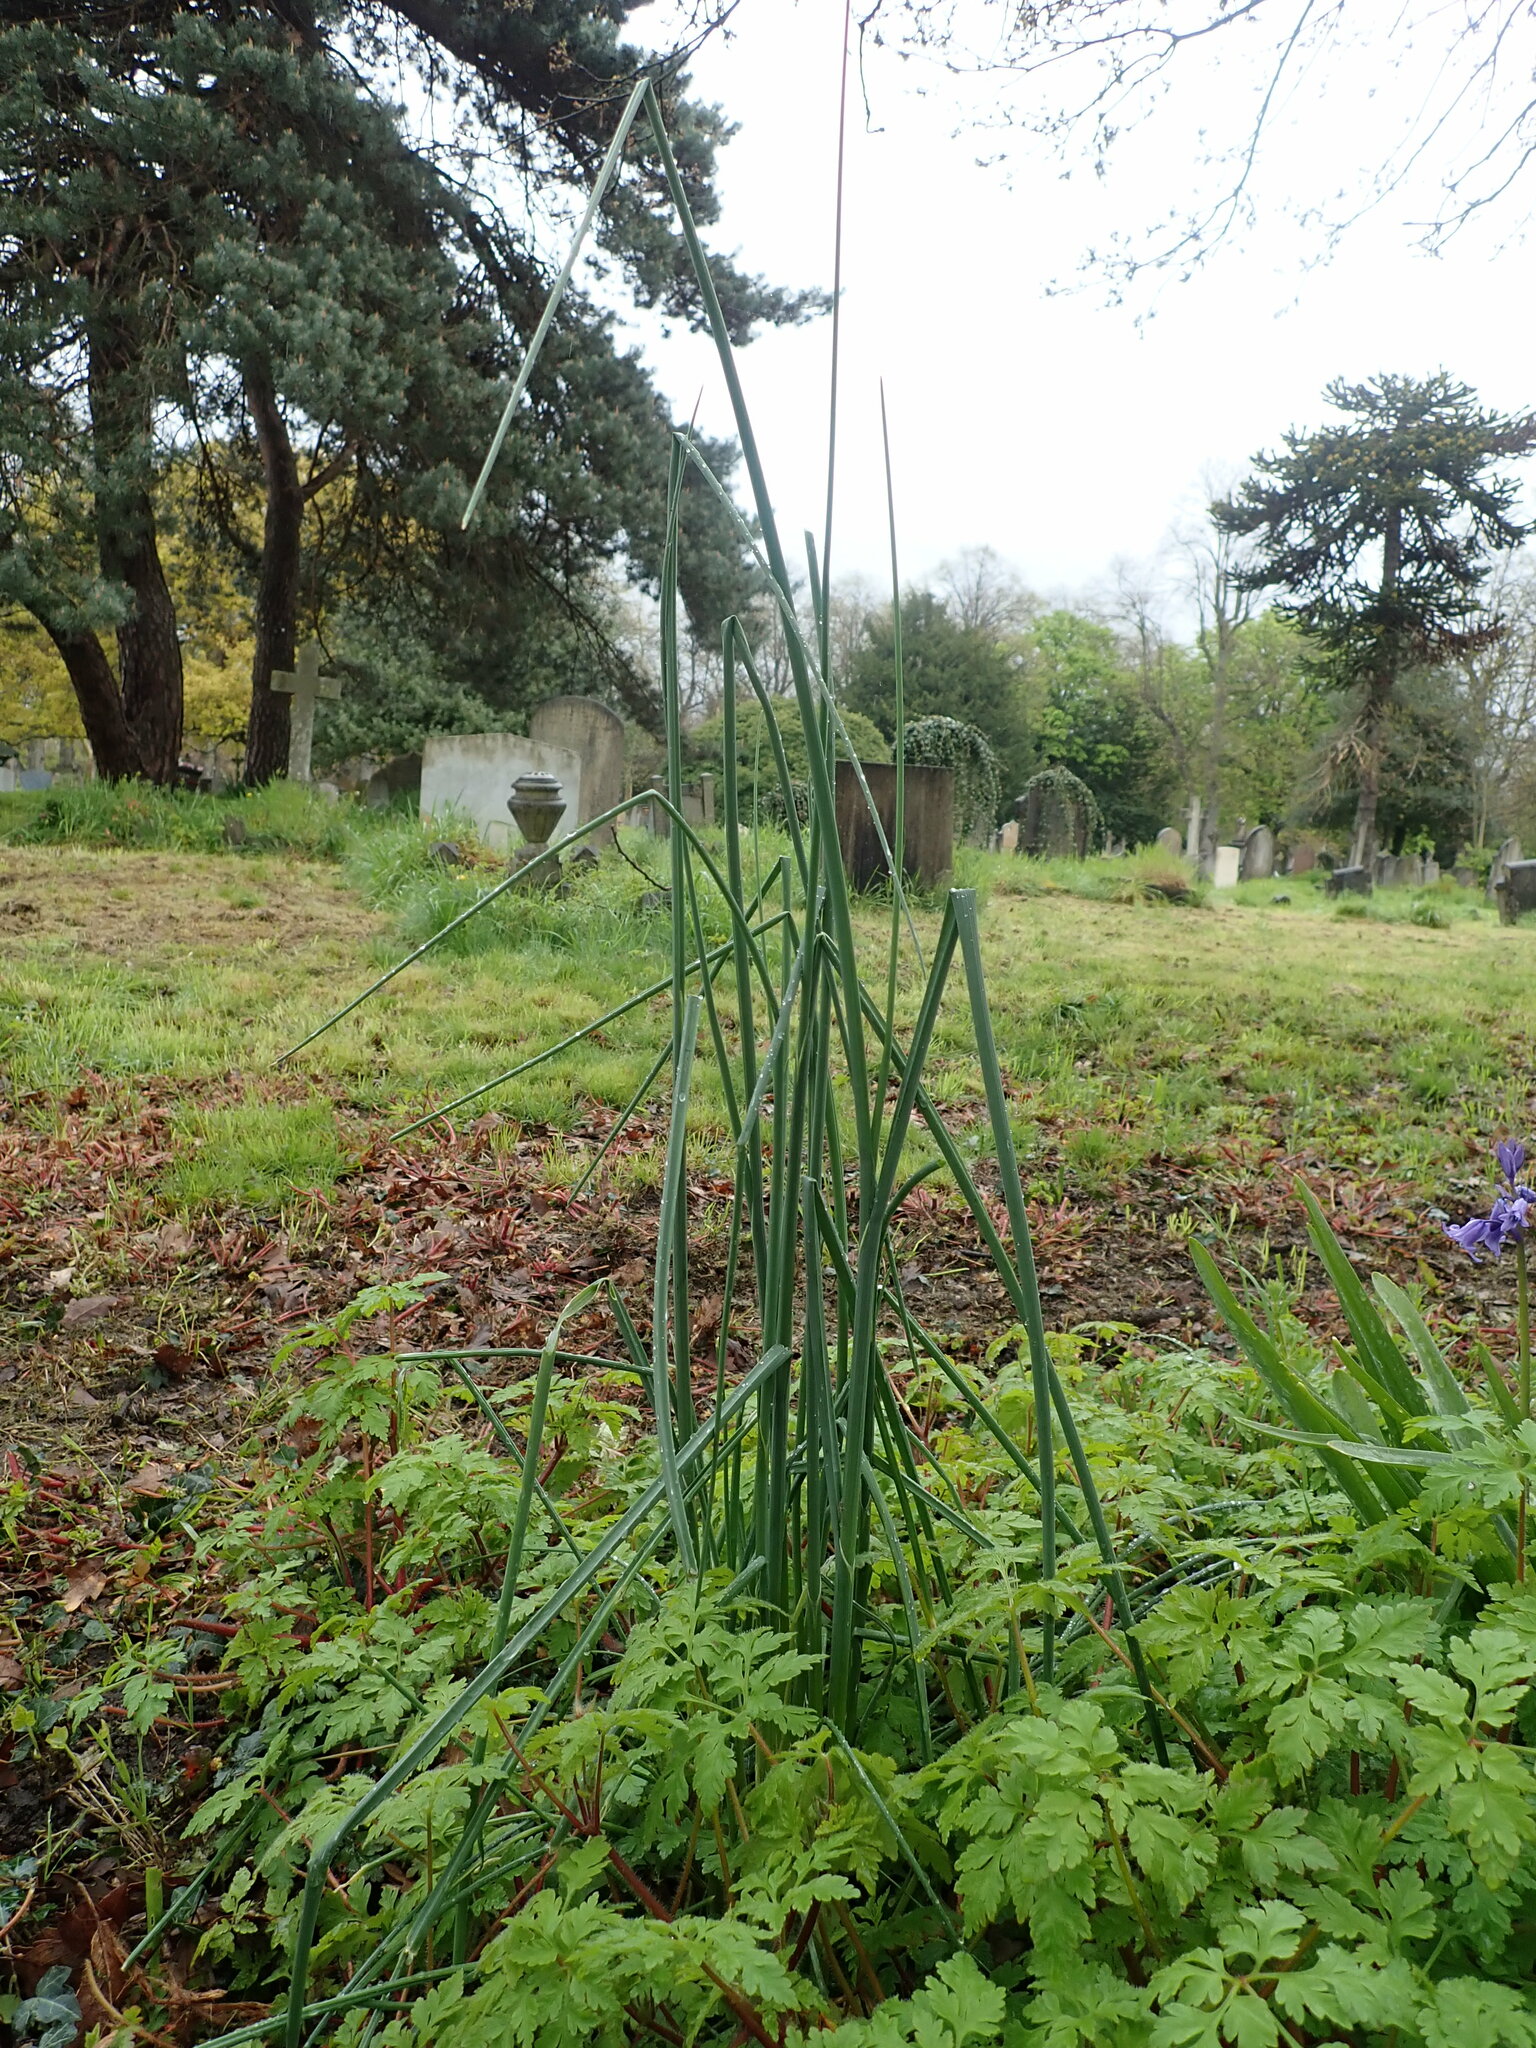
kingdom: Plantae
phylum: Tracheophyta
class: Liliopsida
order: Asparagales
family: Amaryllidaceae
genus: Allium
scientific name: Allium vineale
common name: Crow garlic
